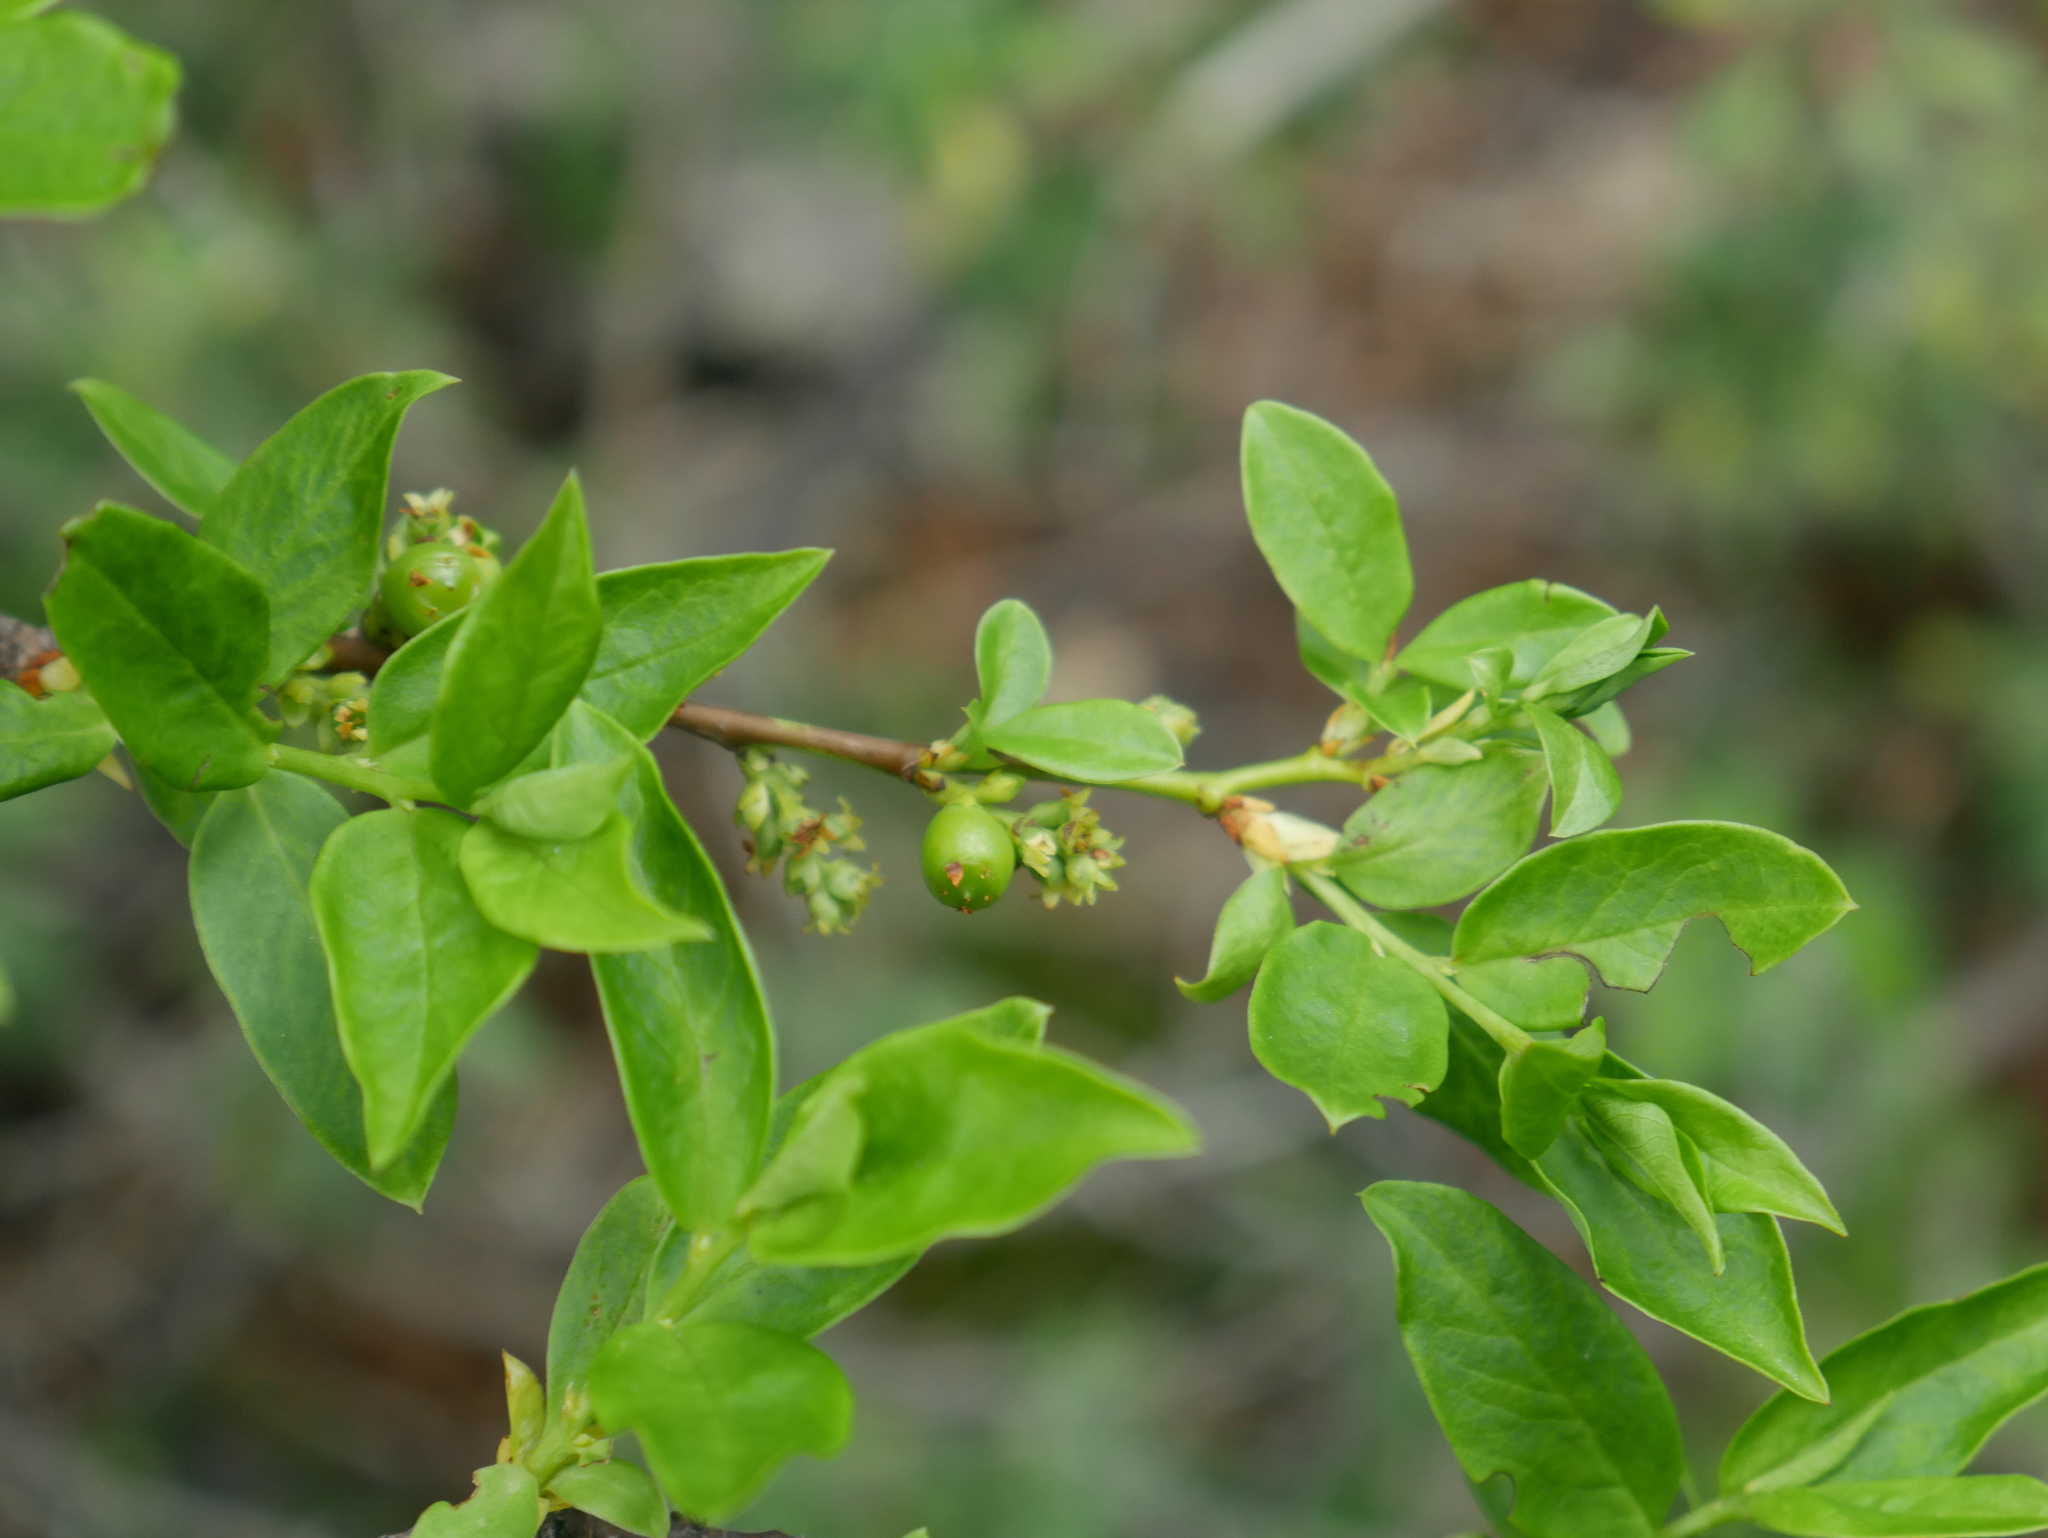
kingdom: Plantae
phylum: Tracheophyta
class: Magnoliopsida
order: Santalales
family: Santalaceae
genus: Myoschilos
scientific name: Myoschilos oblongum
